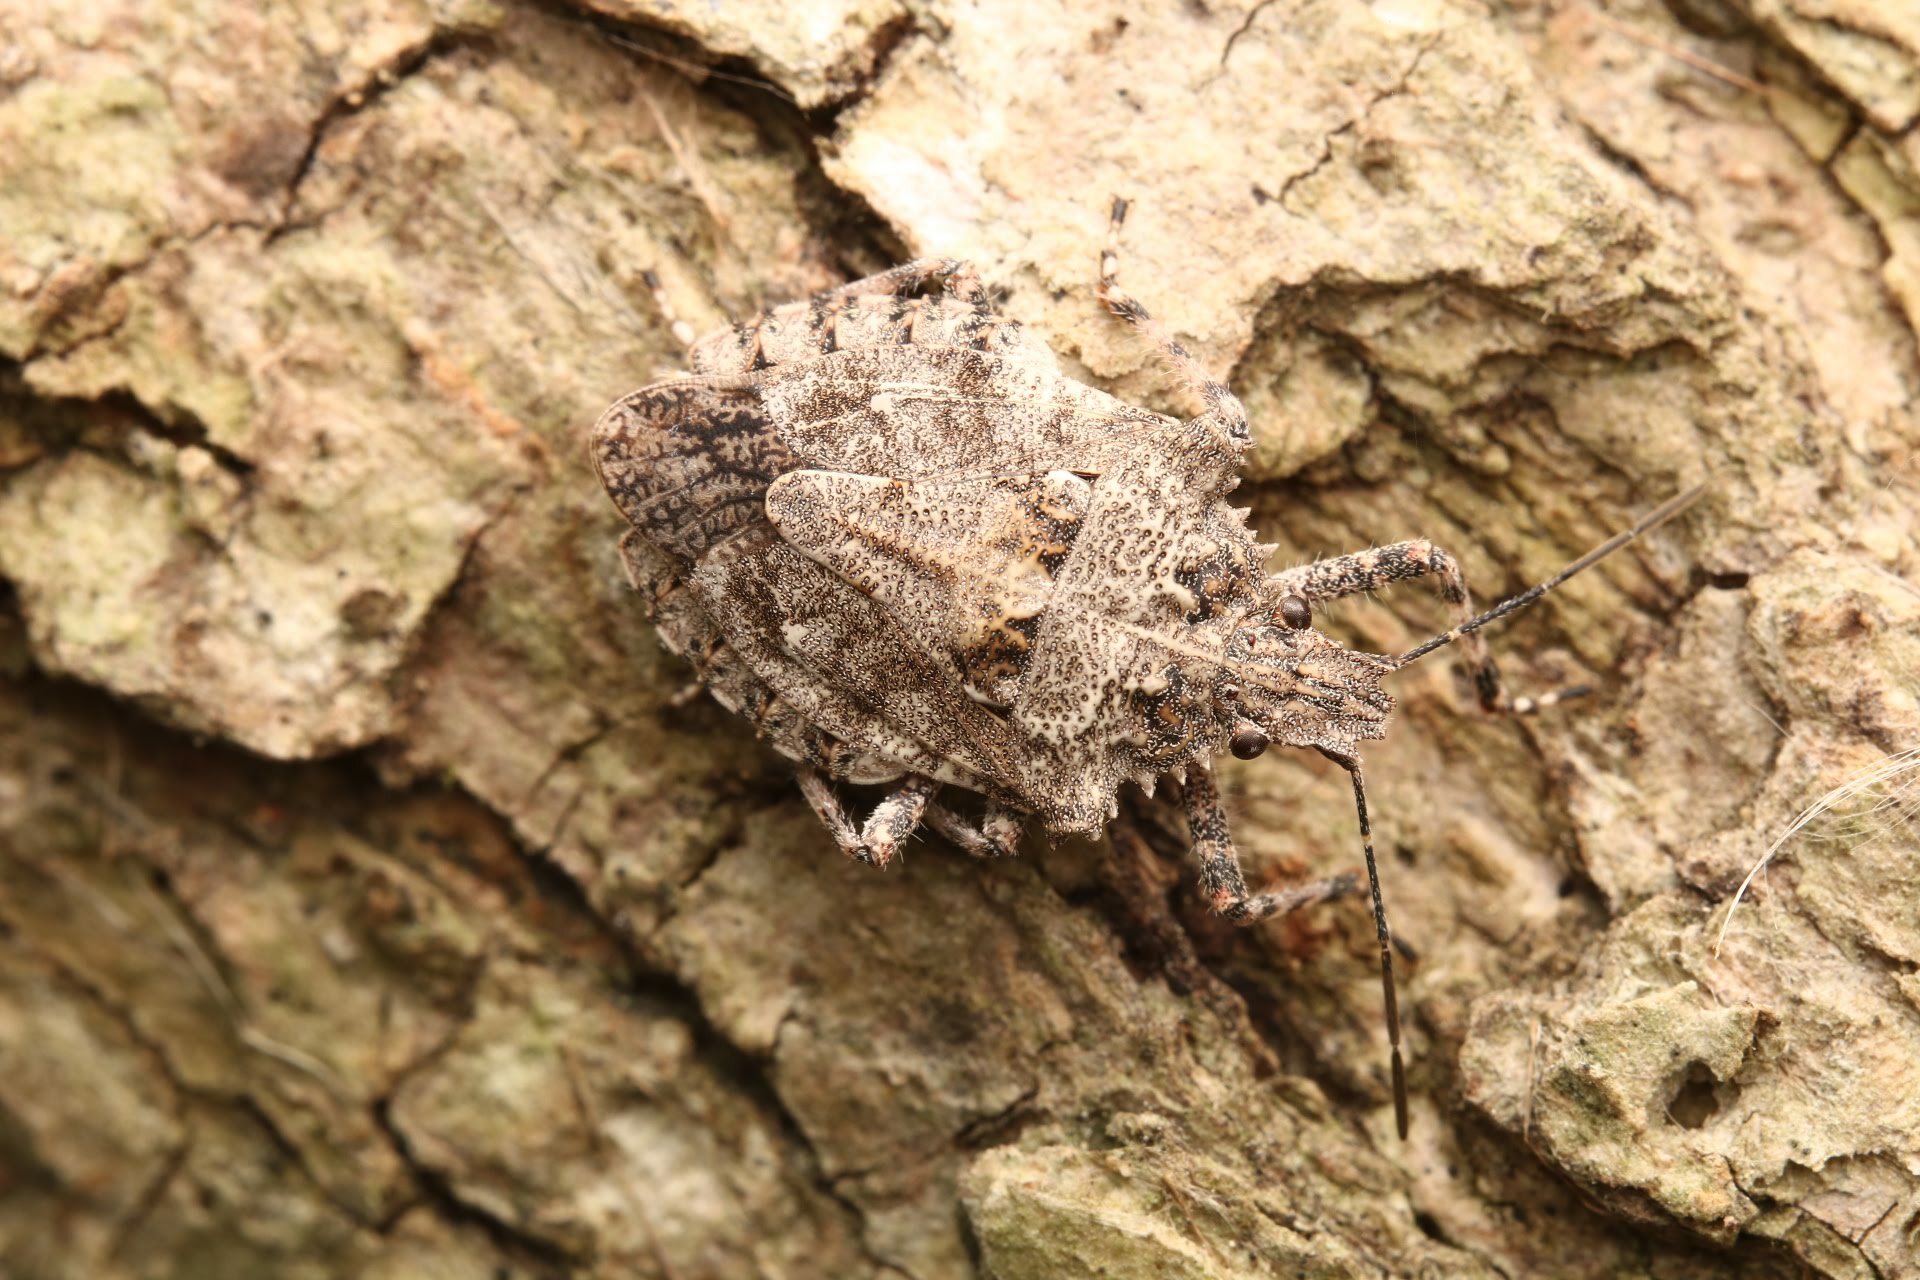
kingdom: Animalia
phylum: Arthropoda
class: Insecta
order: Hemiptera
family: Pentatomidae
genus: Brochymena
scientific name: Brochymena arborea
